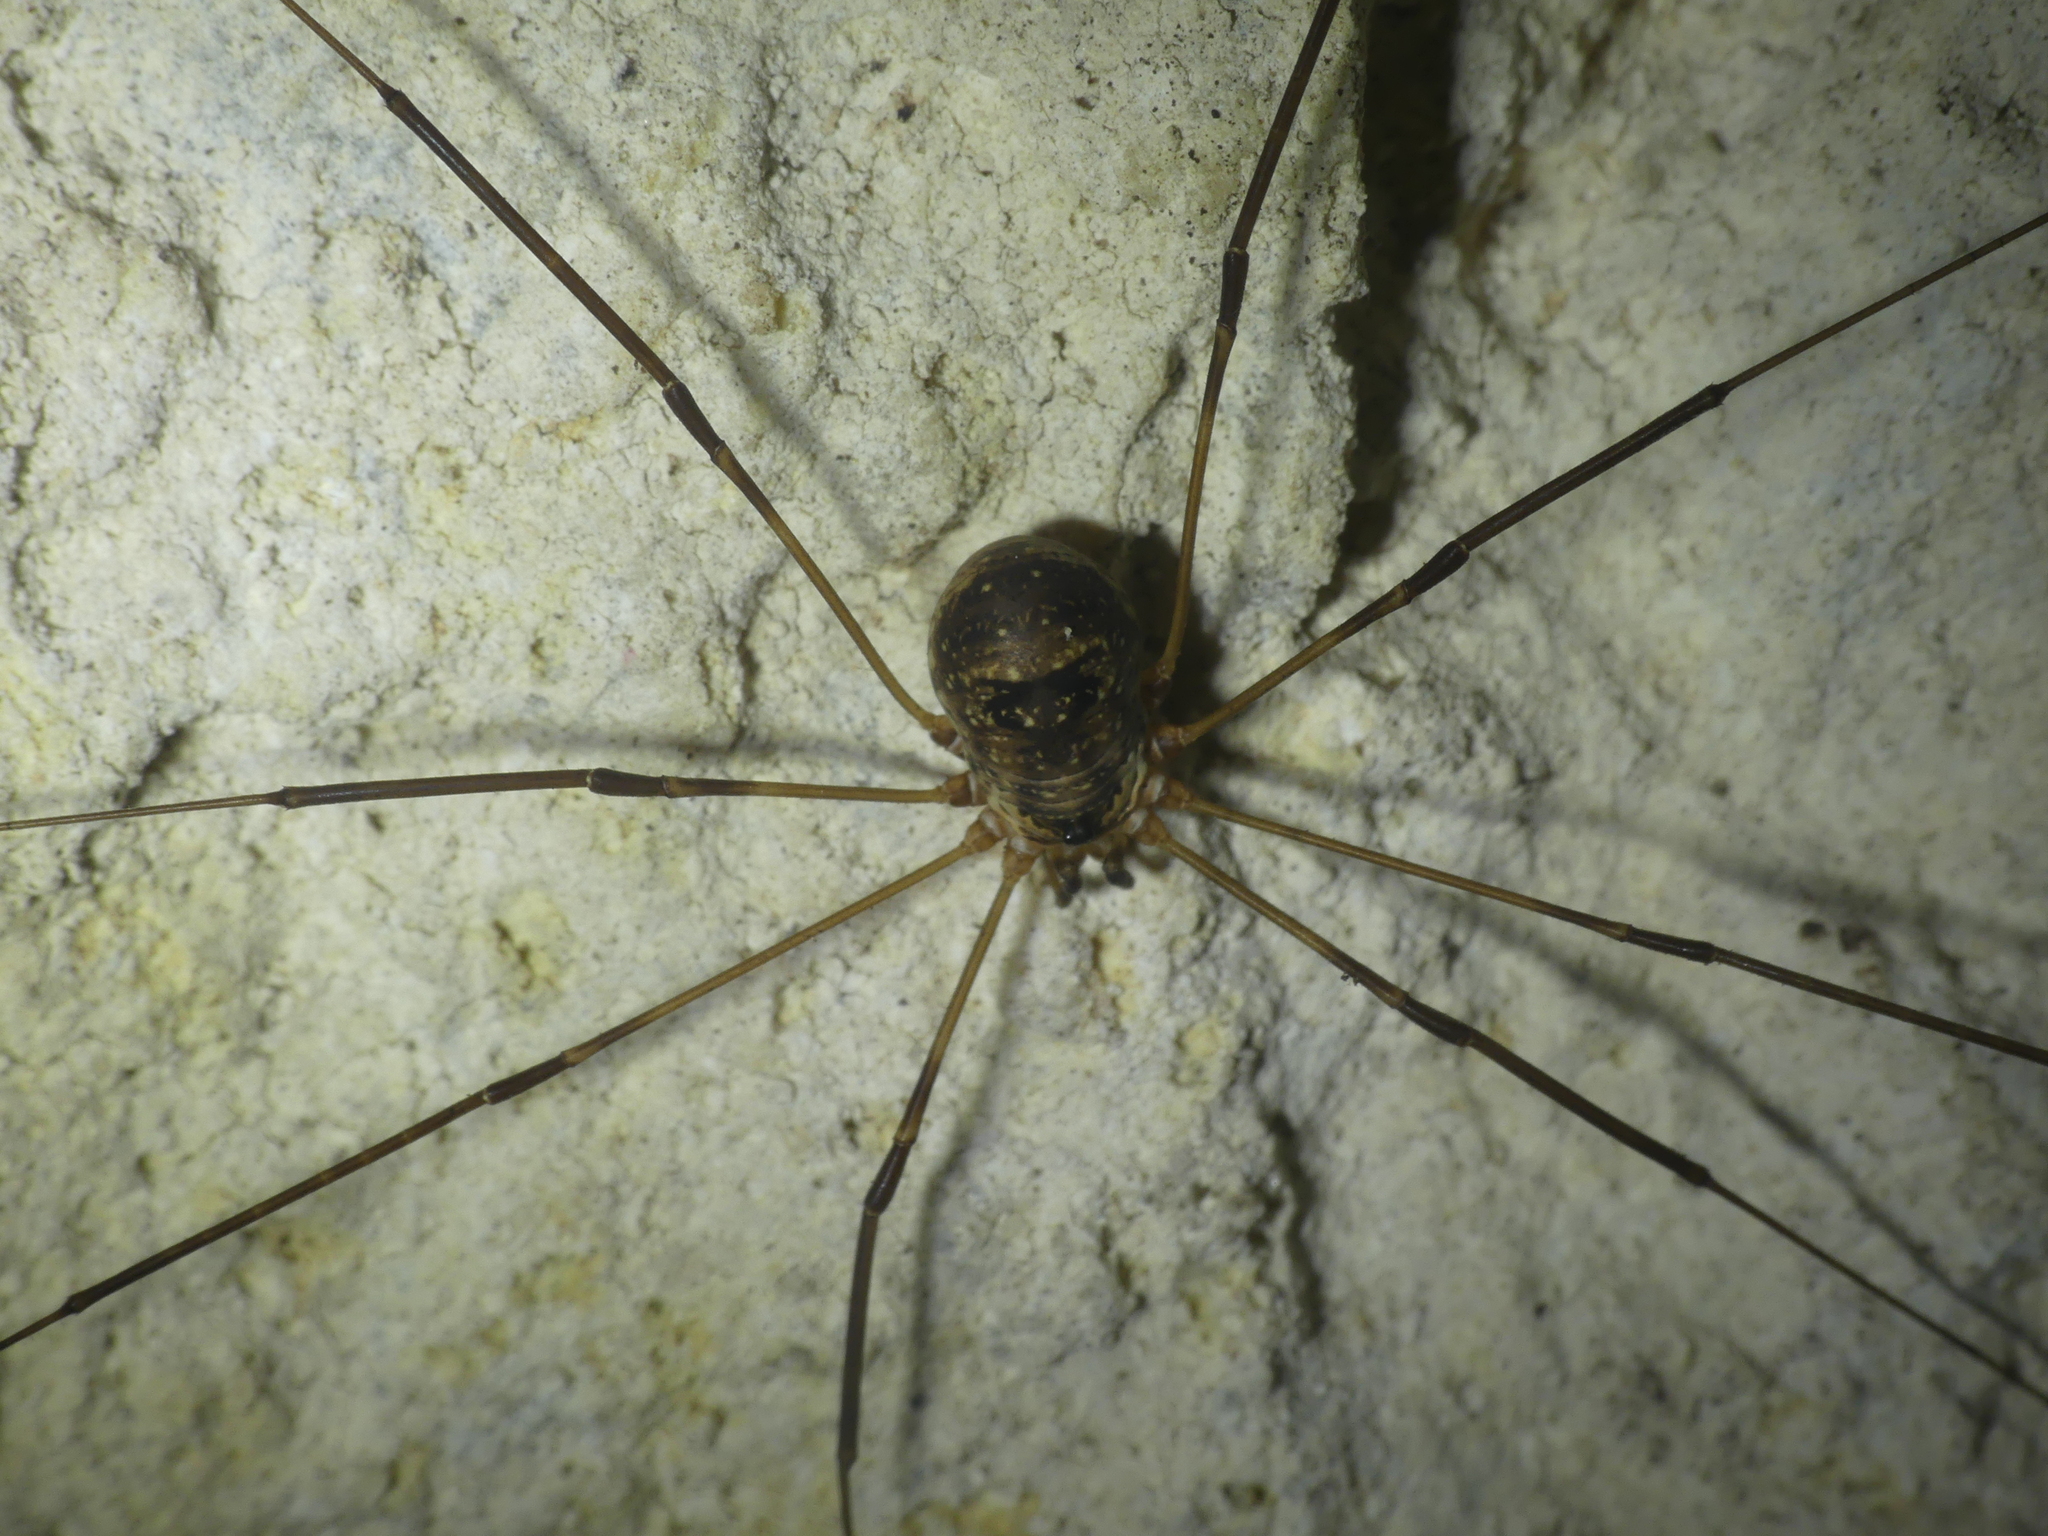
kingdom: Animalia
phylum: Arthropoda
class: Arachnida
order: Opiliones
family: Phalangiidae
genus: Amilenus
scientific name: Amilenus aurantiacus
